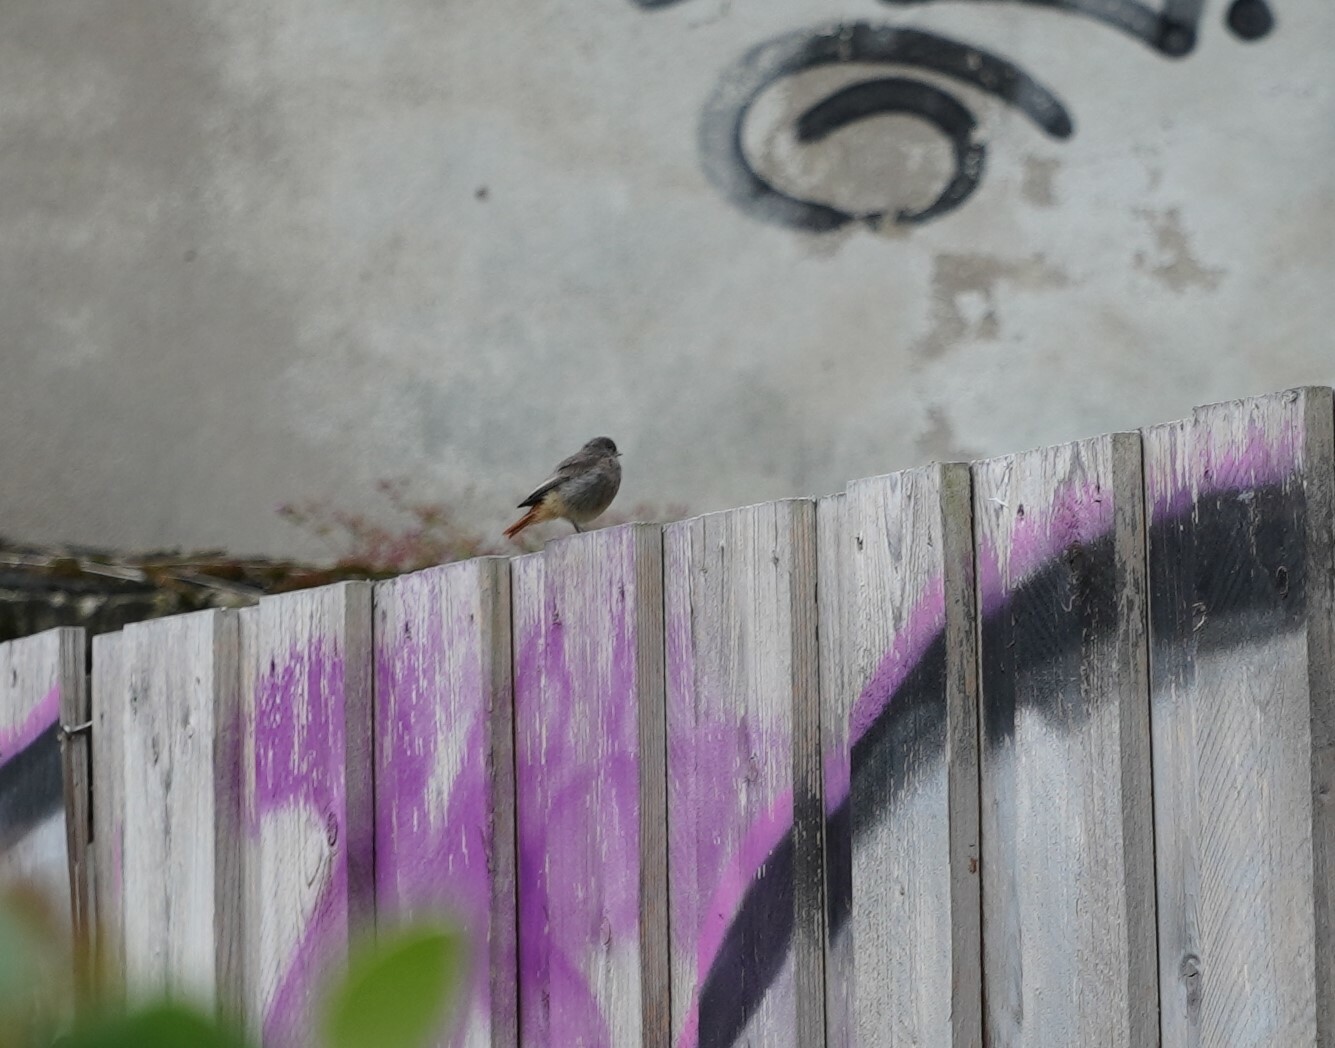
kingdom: Animalia
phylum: Chordata
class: Aves
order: Passeriformes
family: Muscicapidae
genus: Phoenicurus
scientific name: Phoenicurus ochruros
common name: Black redstart
